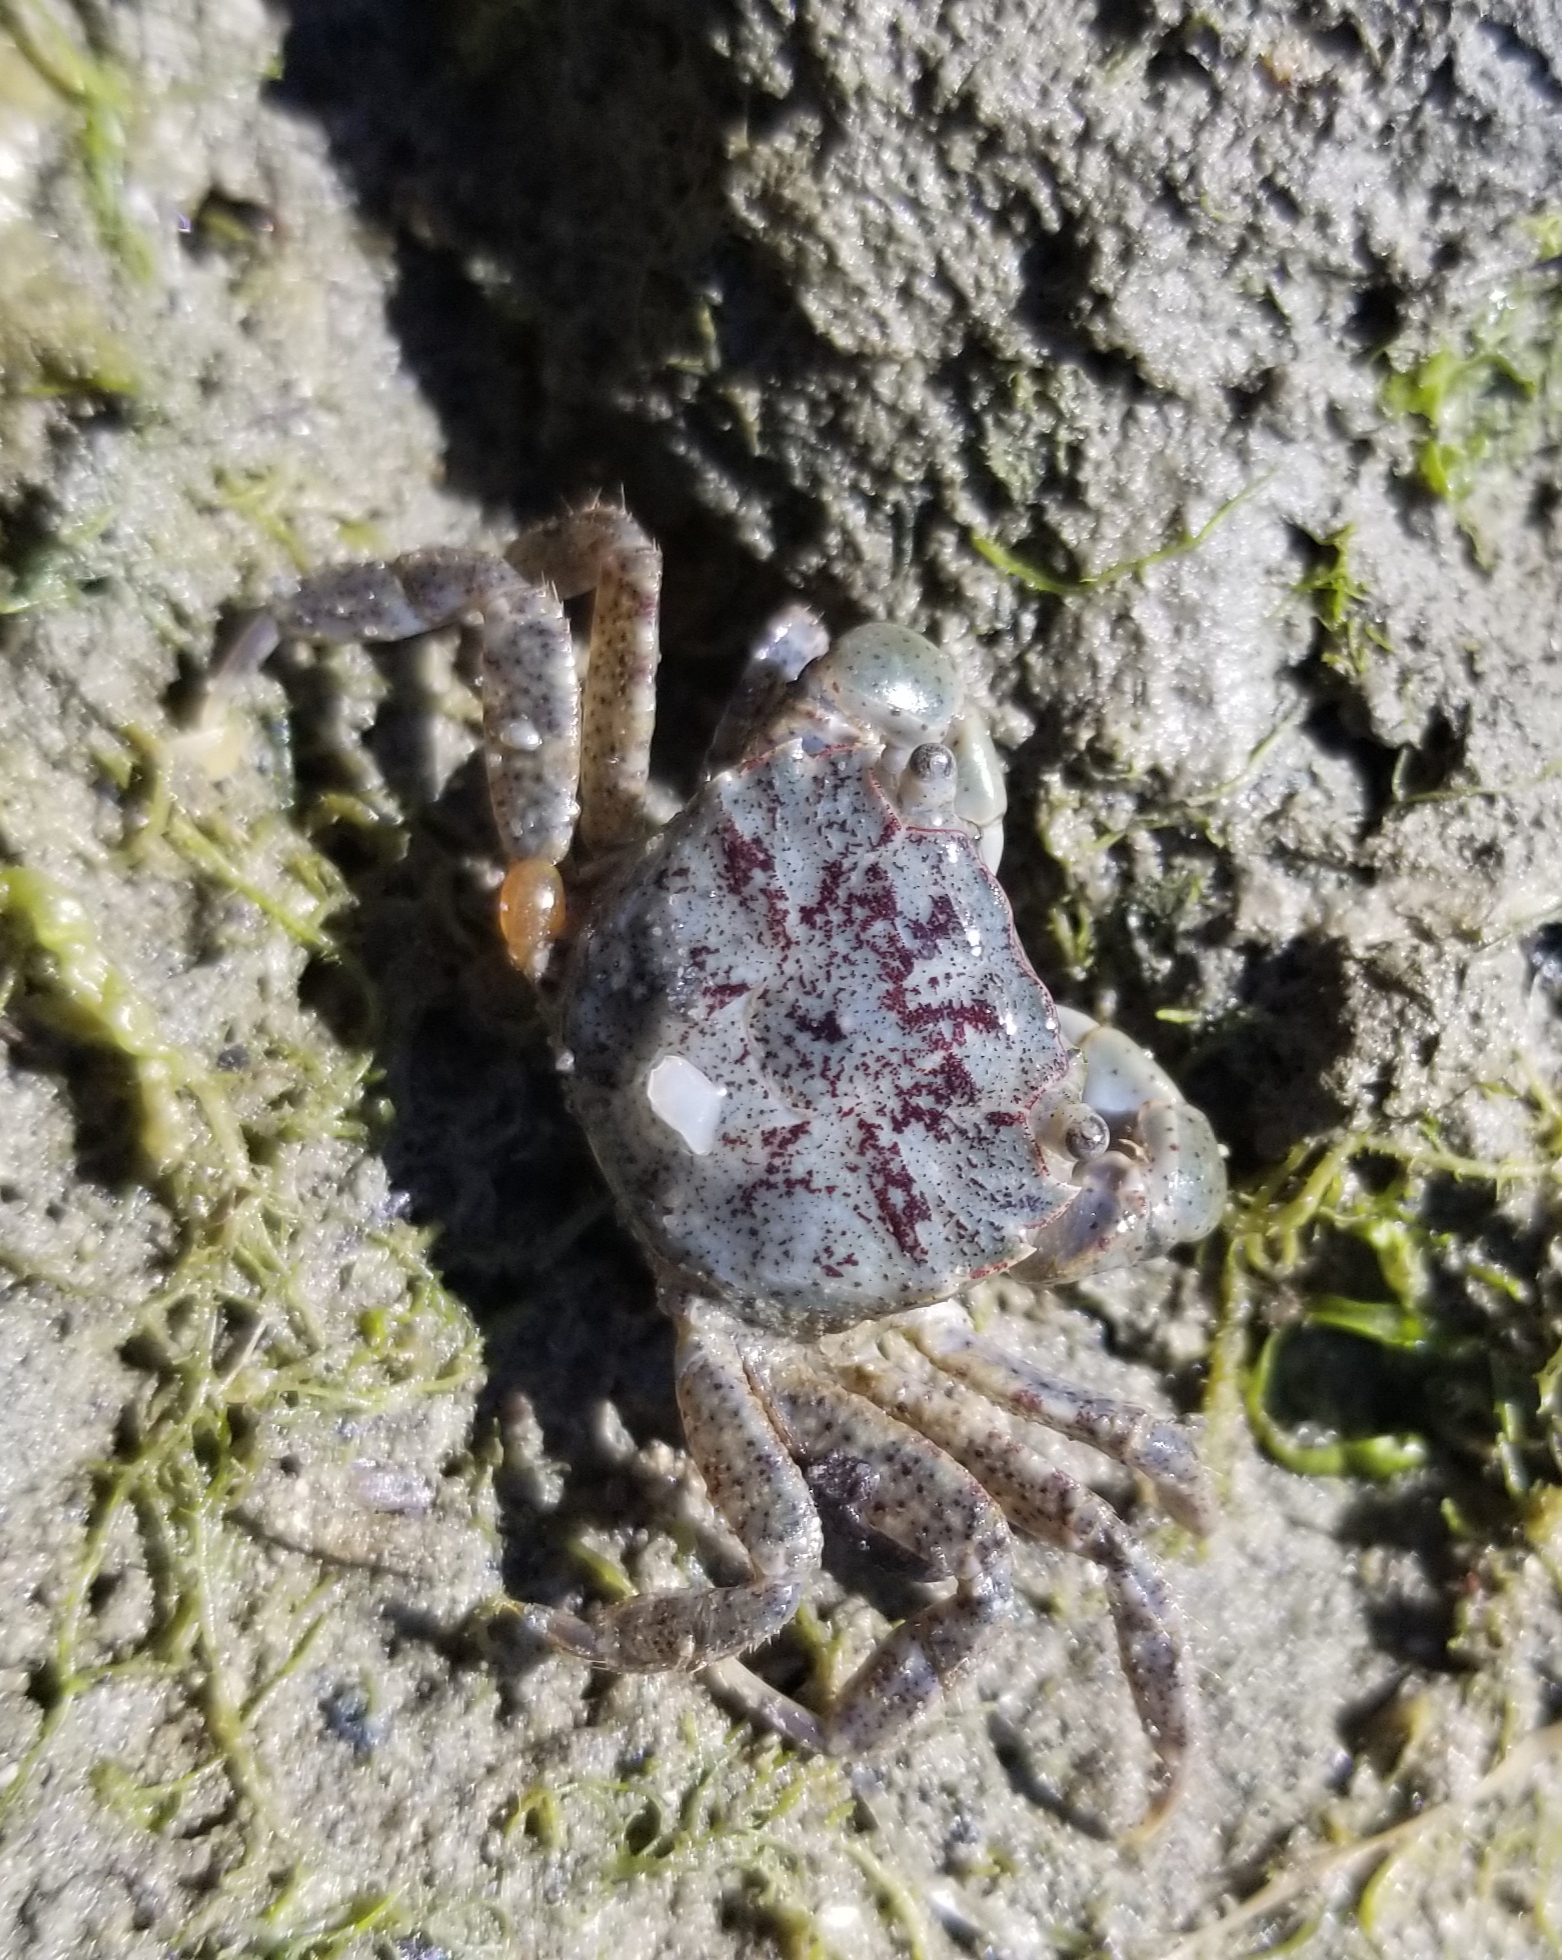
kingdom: Animalia
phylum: Arthropoda
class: Malacostraca
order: Decapoda
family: Varunidae
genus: Hemigrapsus
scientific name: Hemigrapsus oregonensis
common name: Yellow shore crab
